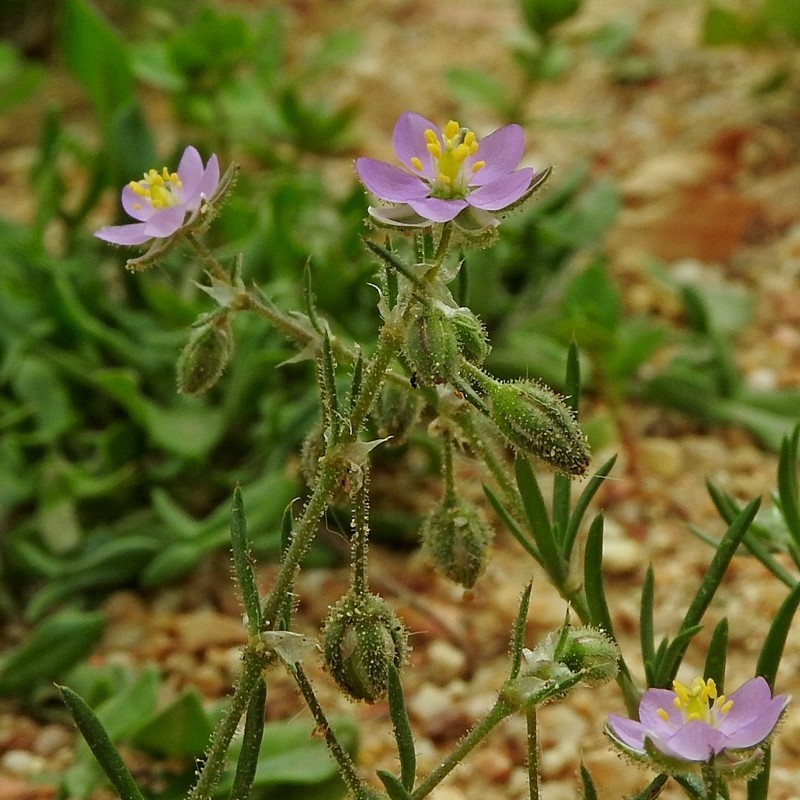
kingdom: Plantae
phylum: Tracheophyta
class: Magnoliopsida
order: Caryophyllales
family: Caryophyllaceae
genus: Spergularia
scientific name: Spergularia rubra
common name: Red sand-spurrey
